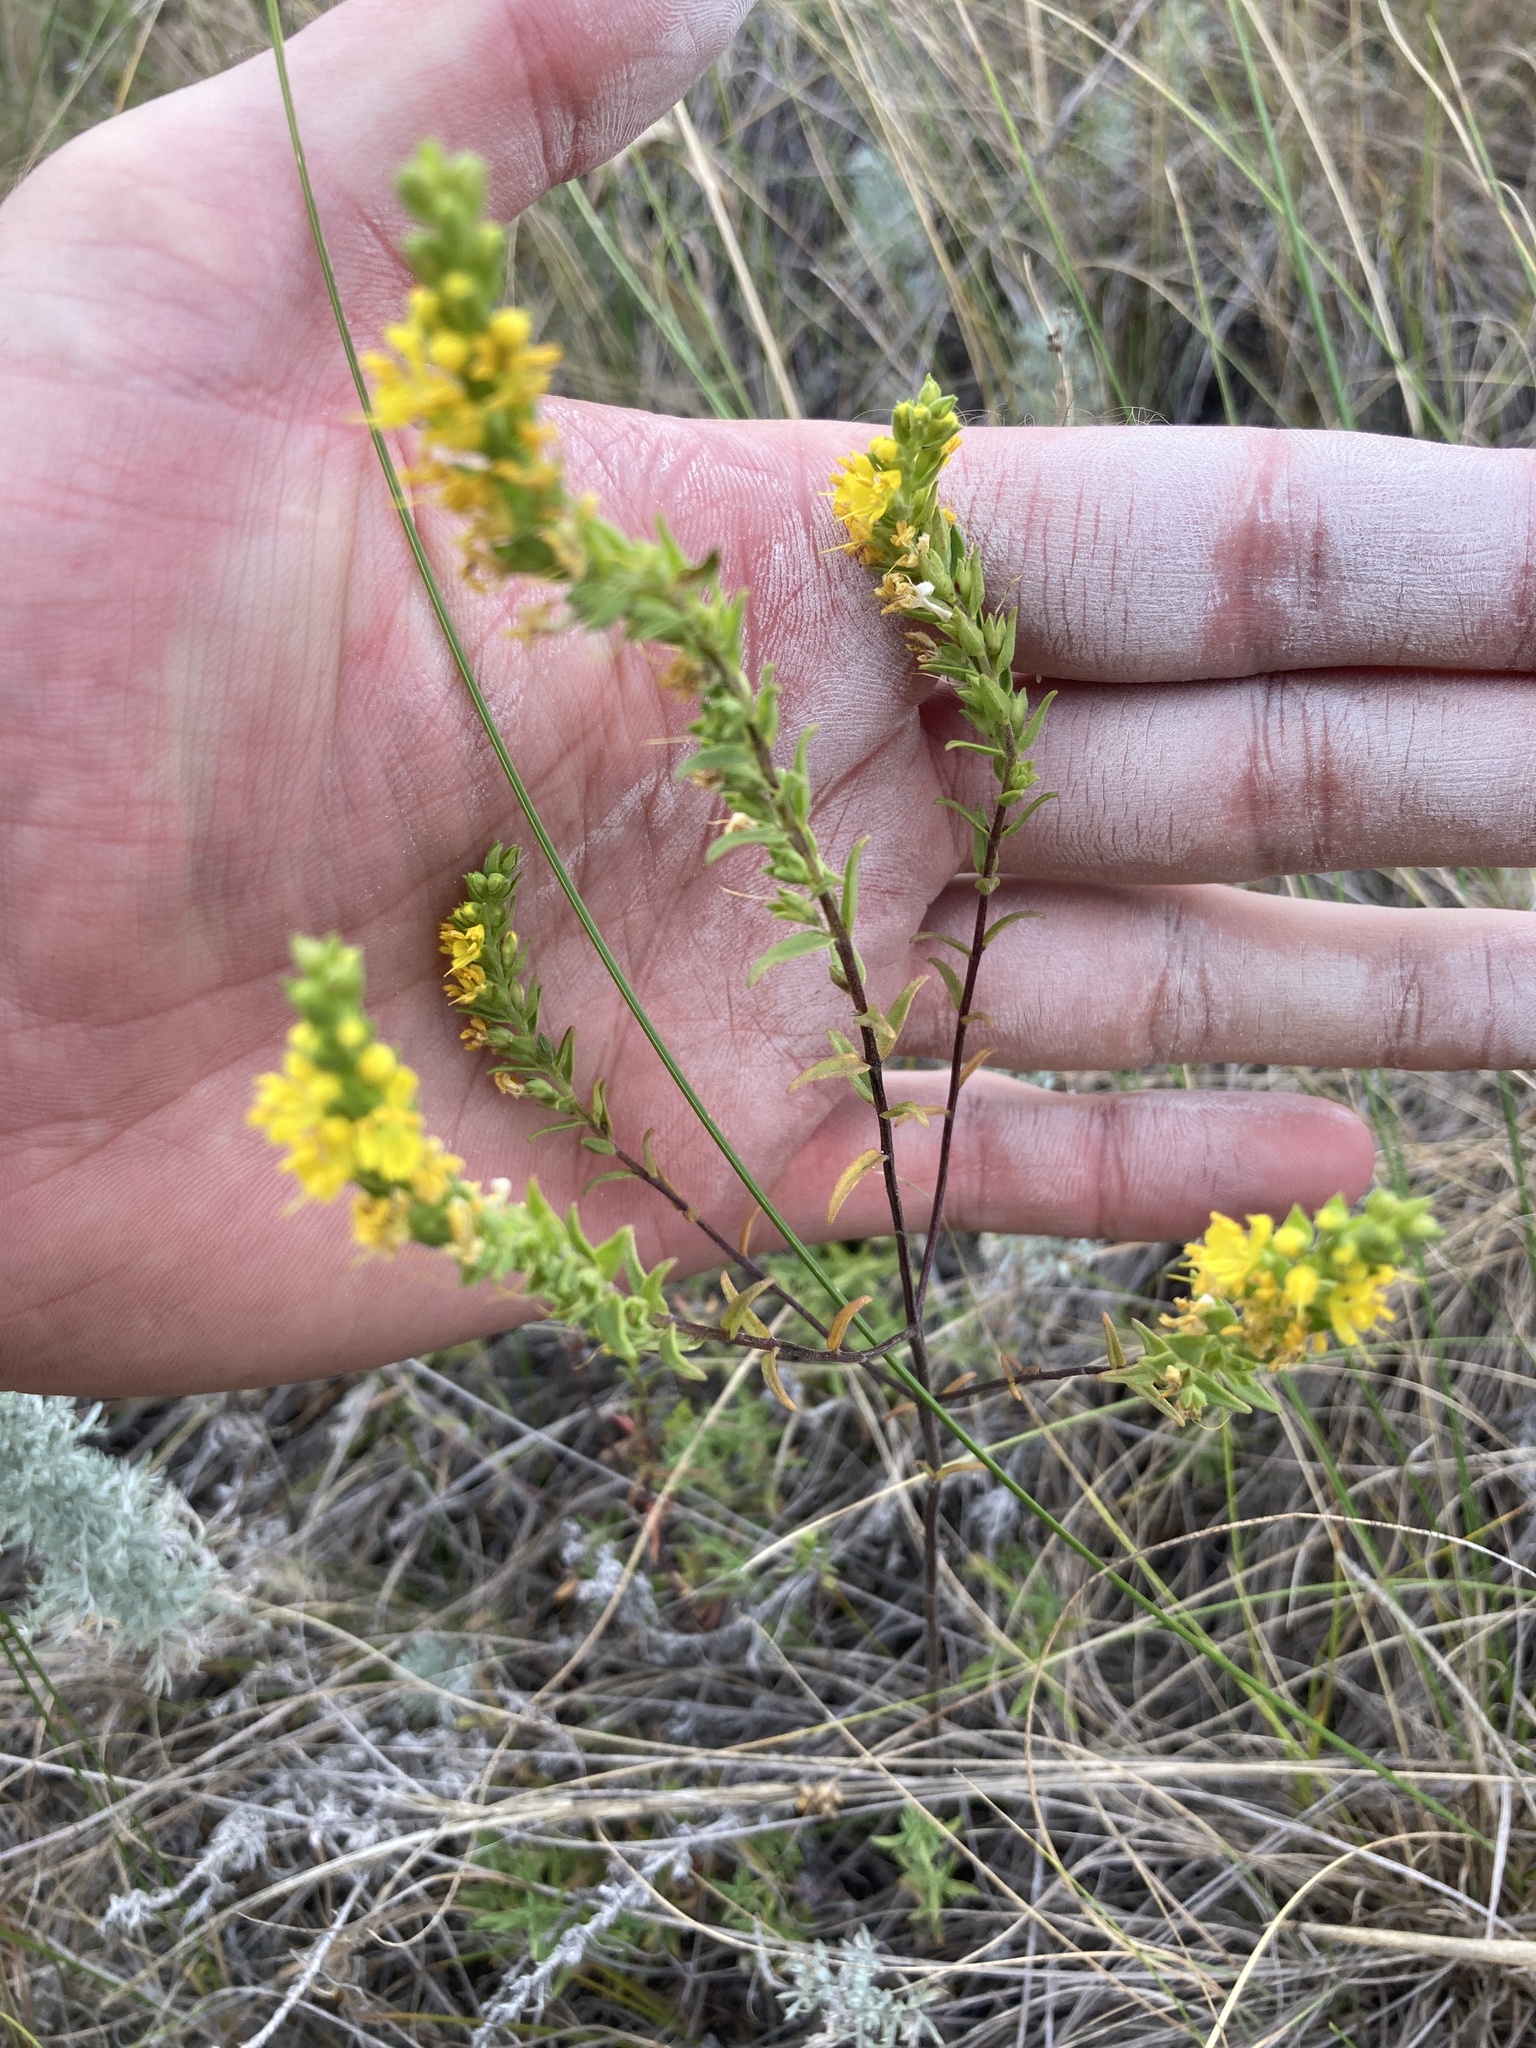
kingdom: Plantae
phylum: Tracheophyta
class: Magnoliopsida
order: Lamiales
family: Orobanchaceae
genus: Odontites
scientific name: Odontites luteus
